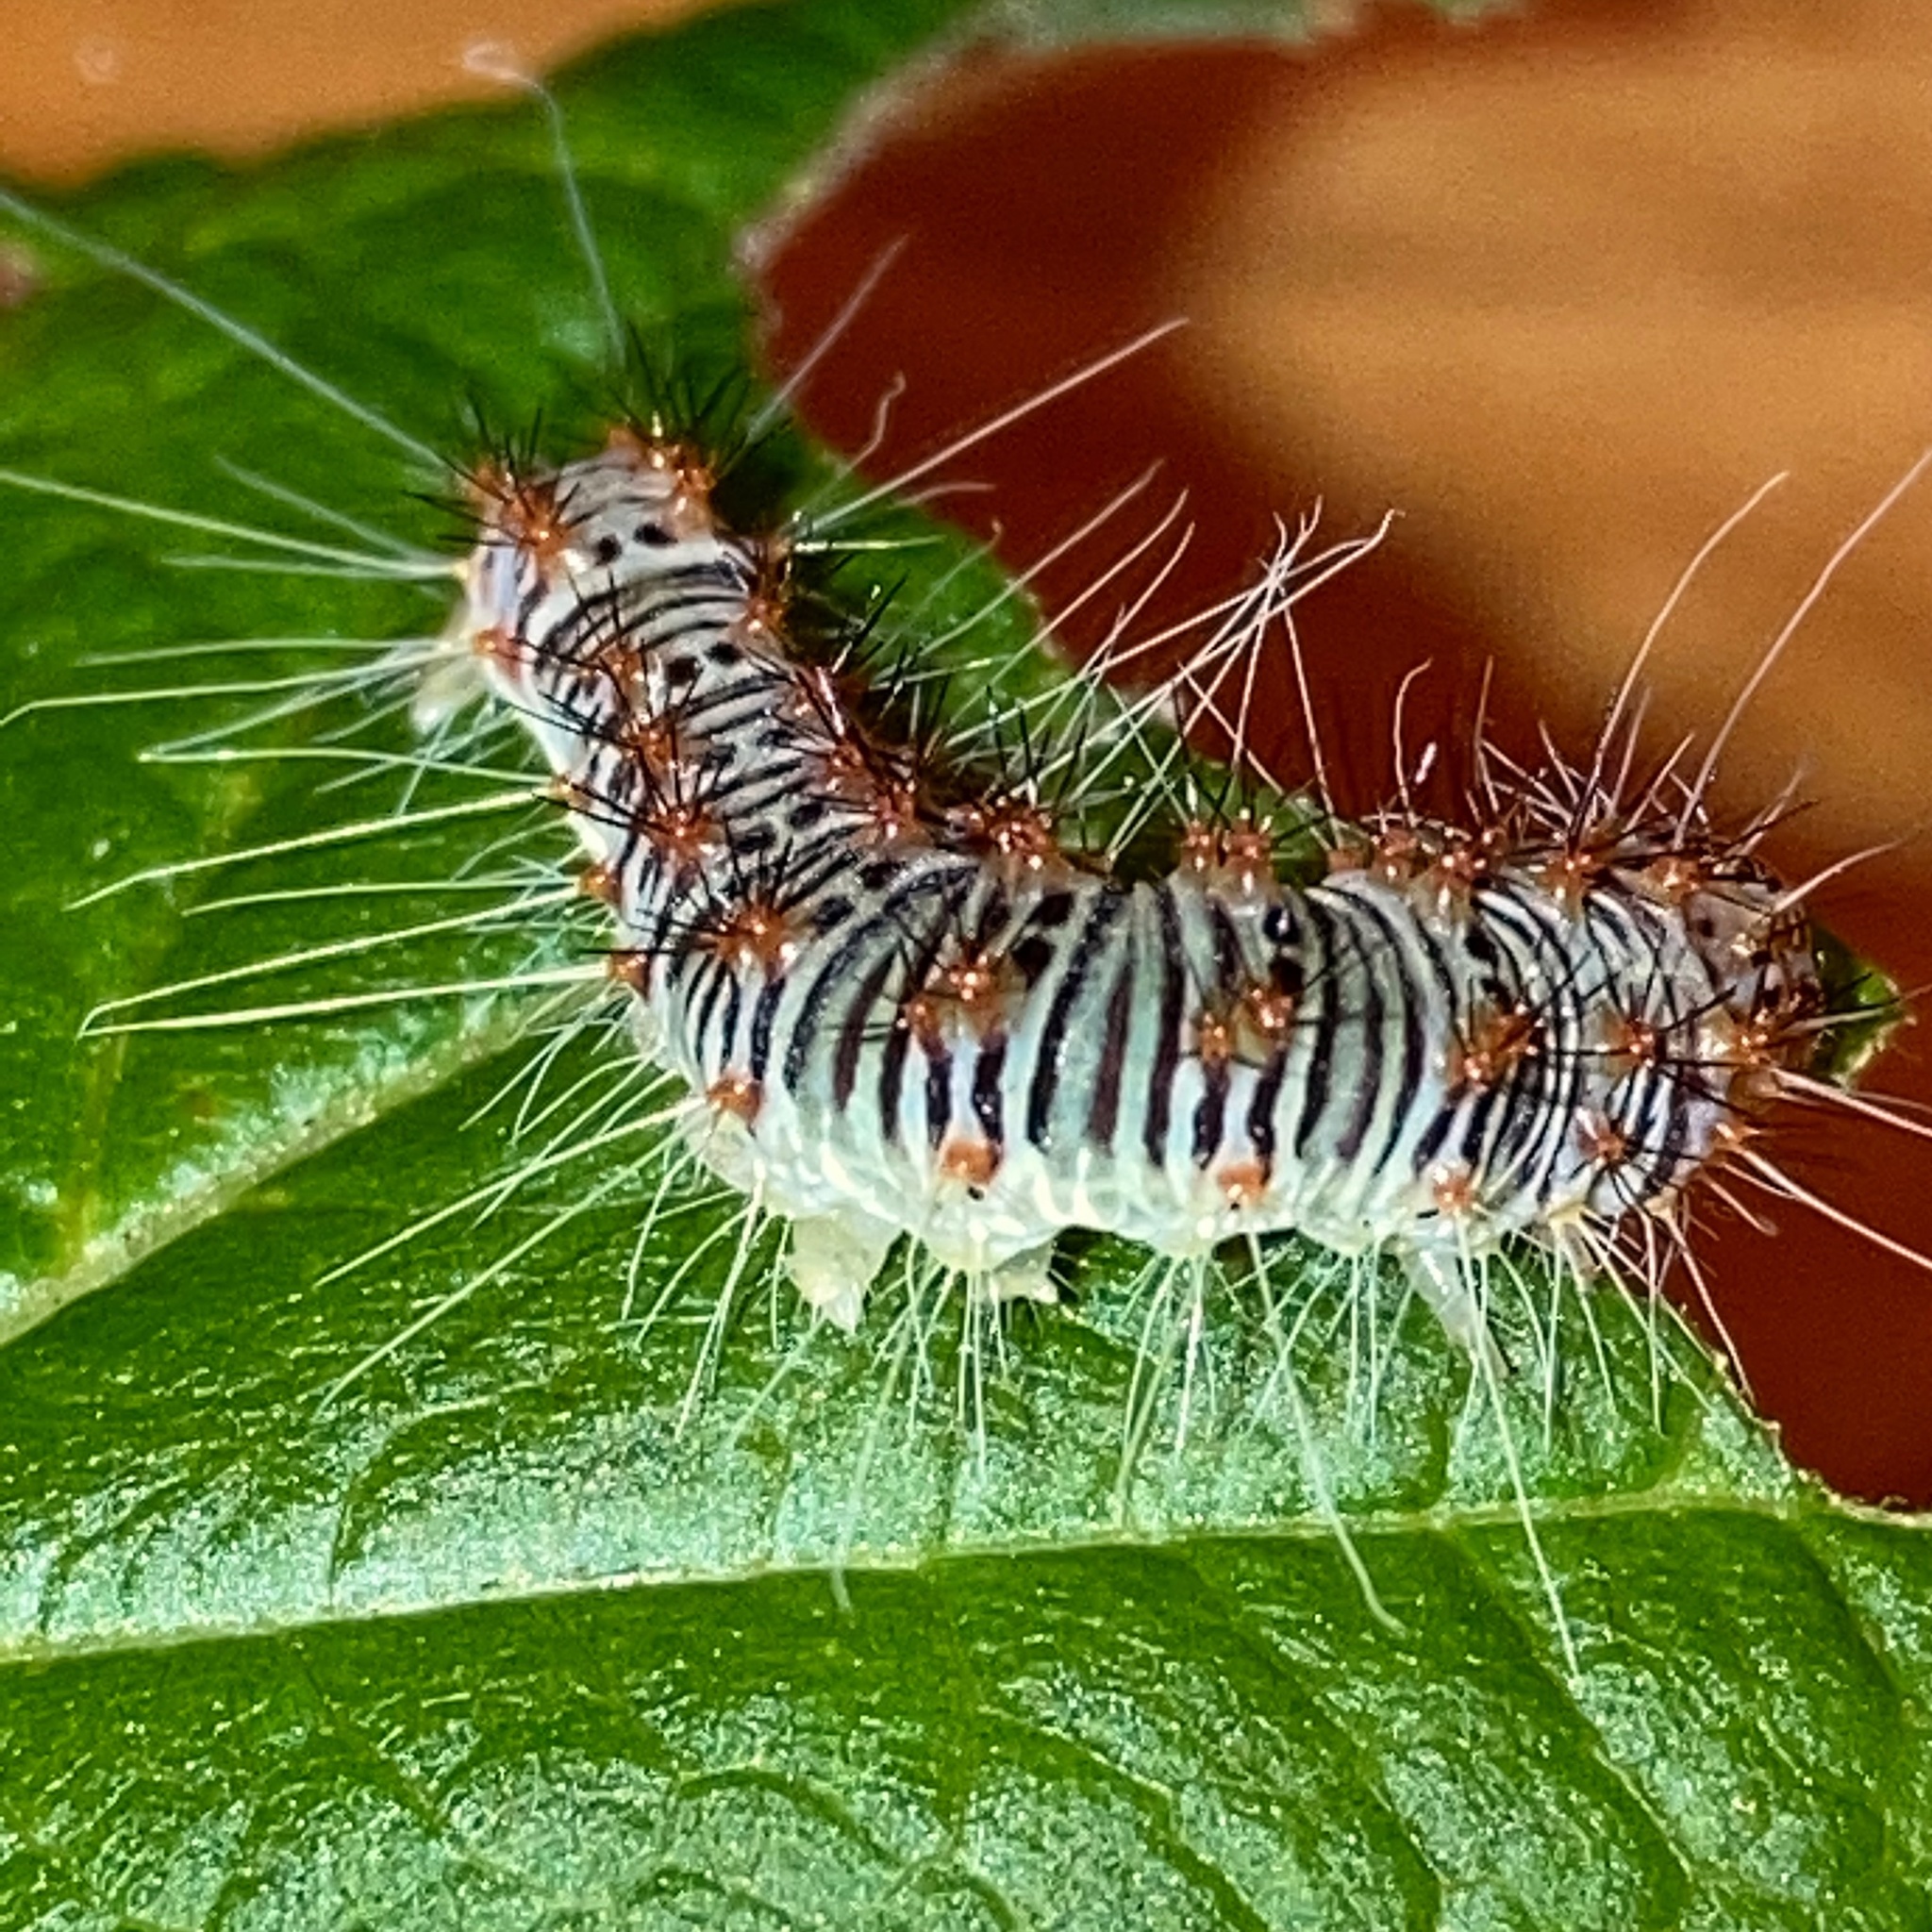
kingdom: Animalia
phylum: Arthropoda
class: Insecta
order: Lepidoptera
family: Noctuidae
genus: Acronicta
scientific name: Acronicta retardata
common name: Maple dagger
